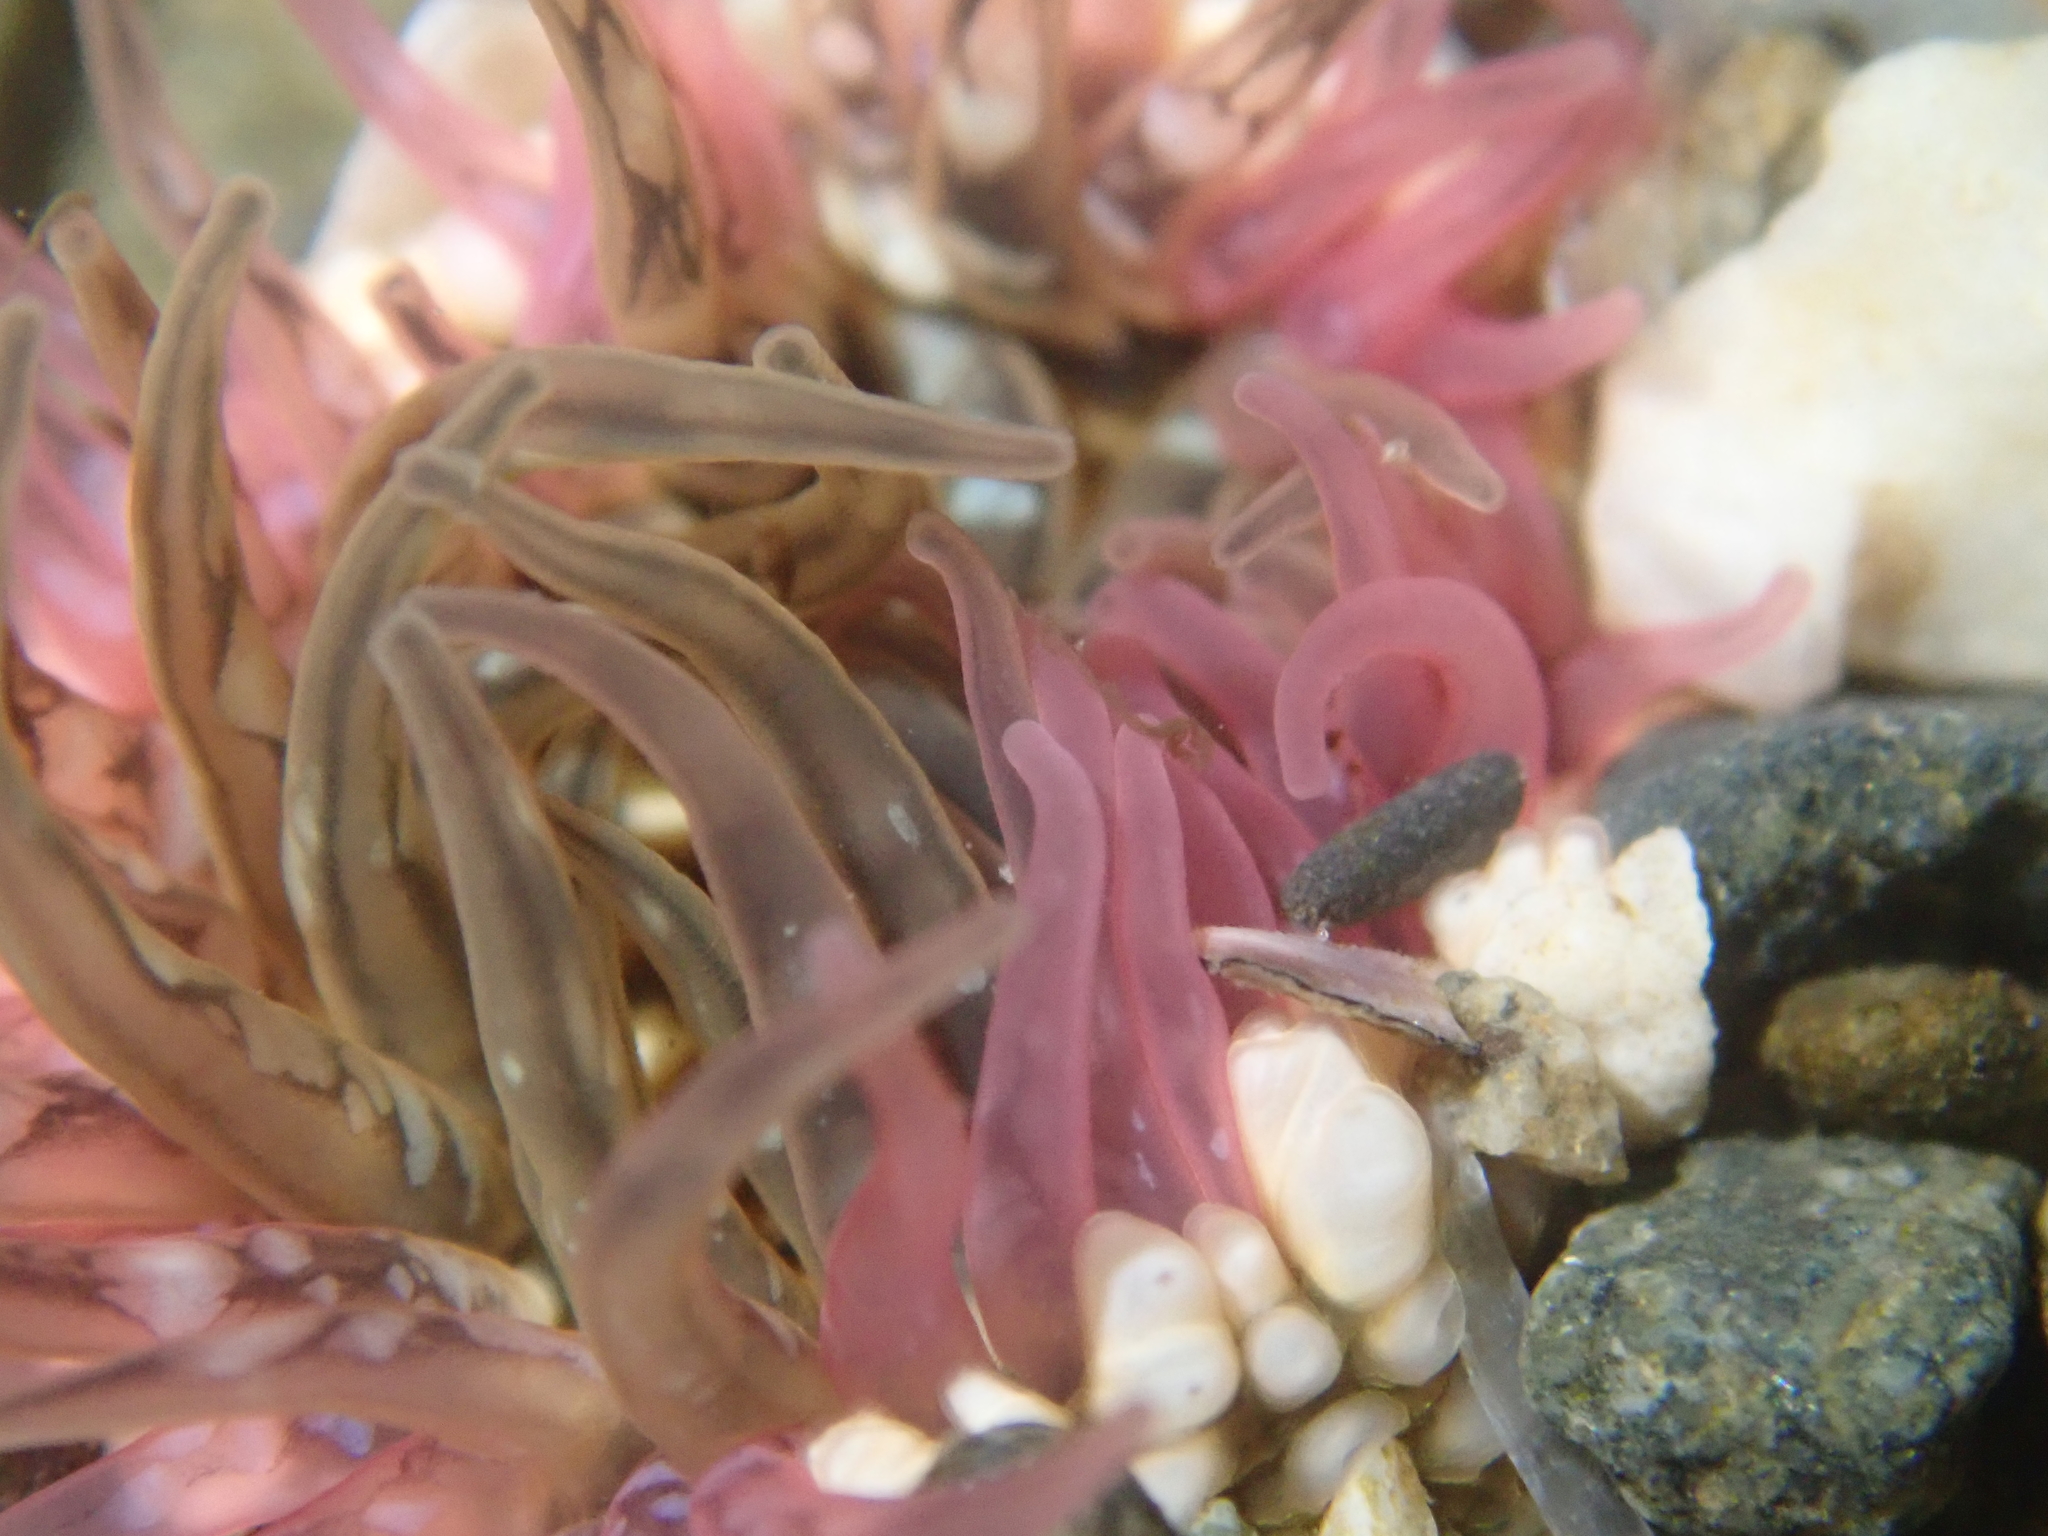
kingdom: Animalia
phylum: Cnidaria
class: Anthozoa
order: Actiniaria
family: Actiniidae
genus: Oulactis
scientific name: Oulactis muscosa
